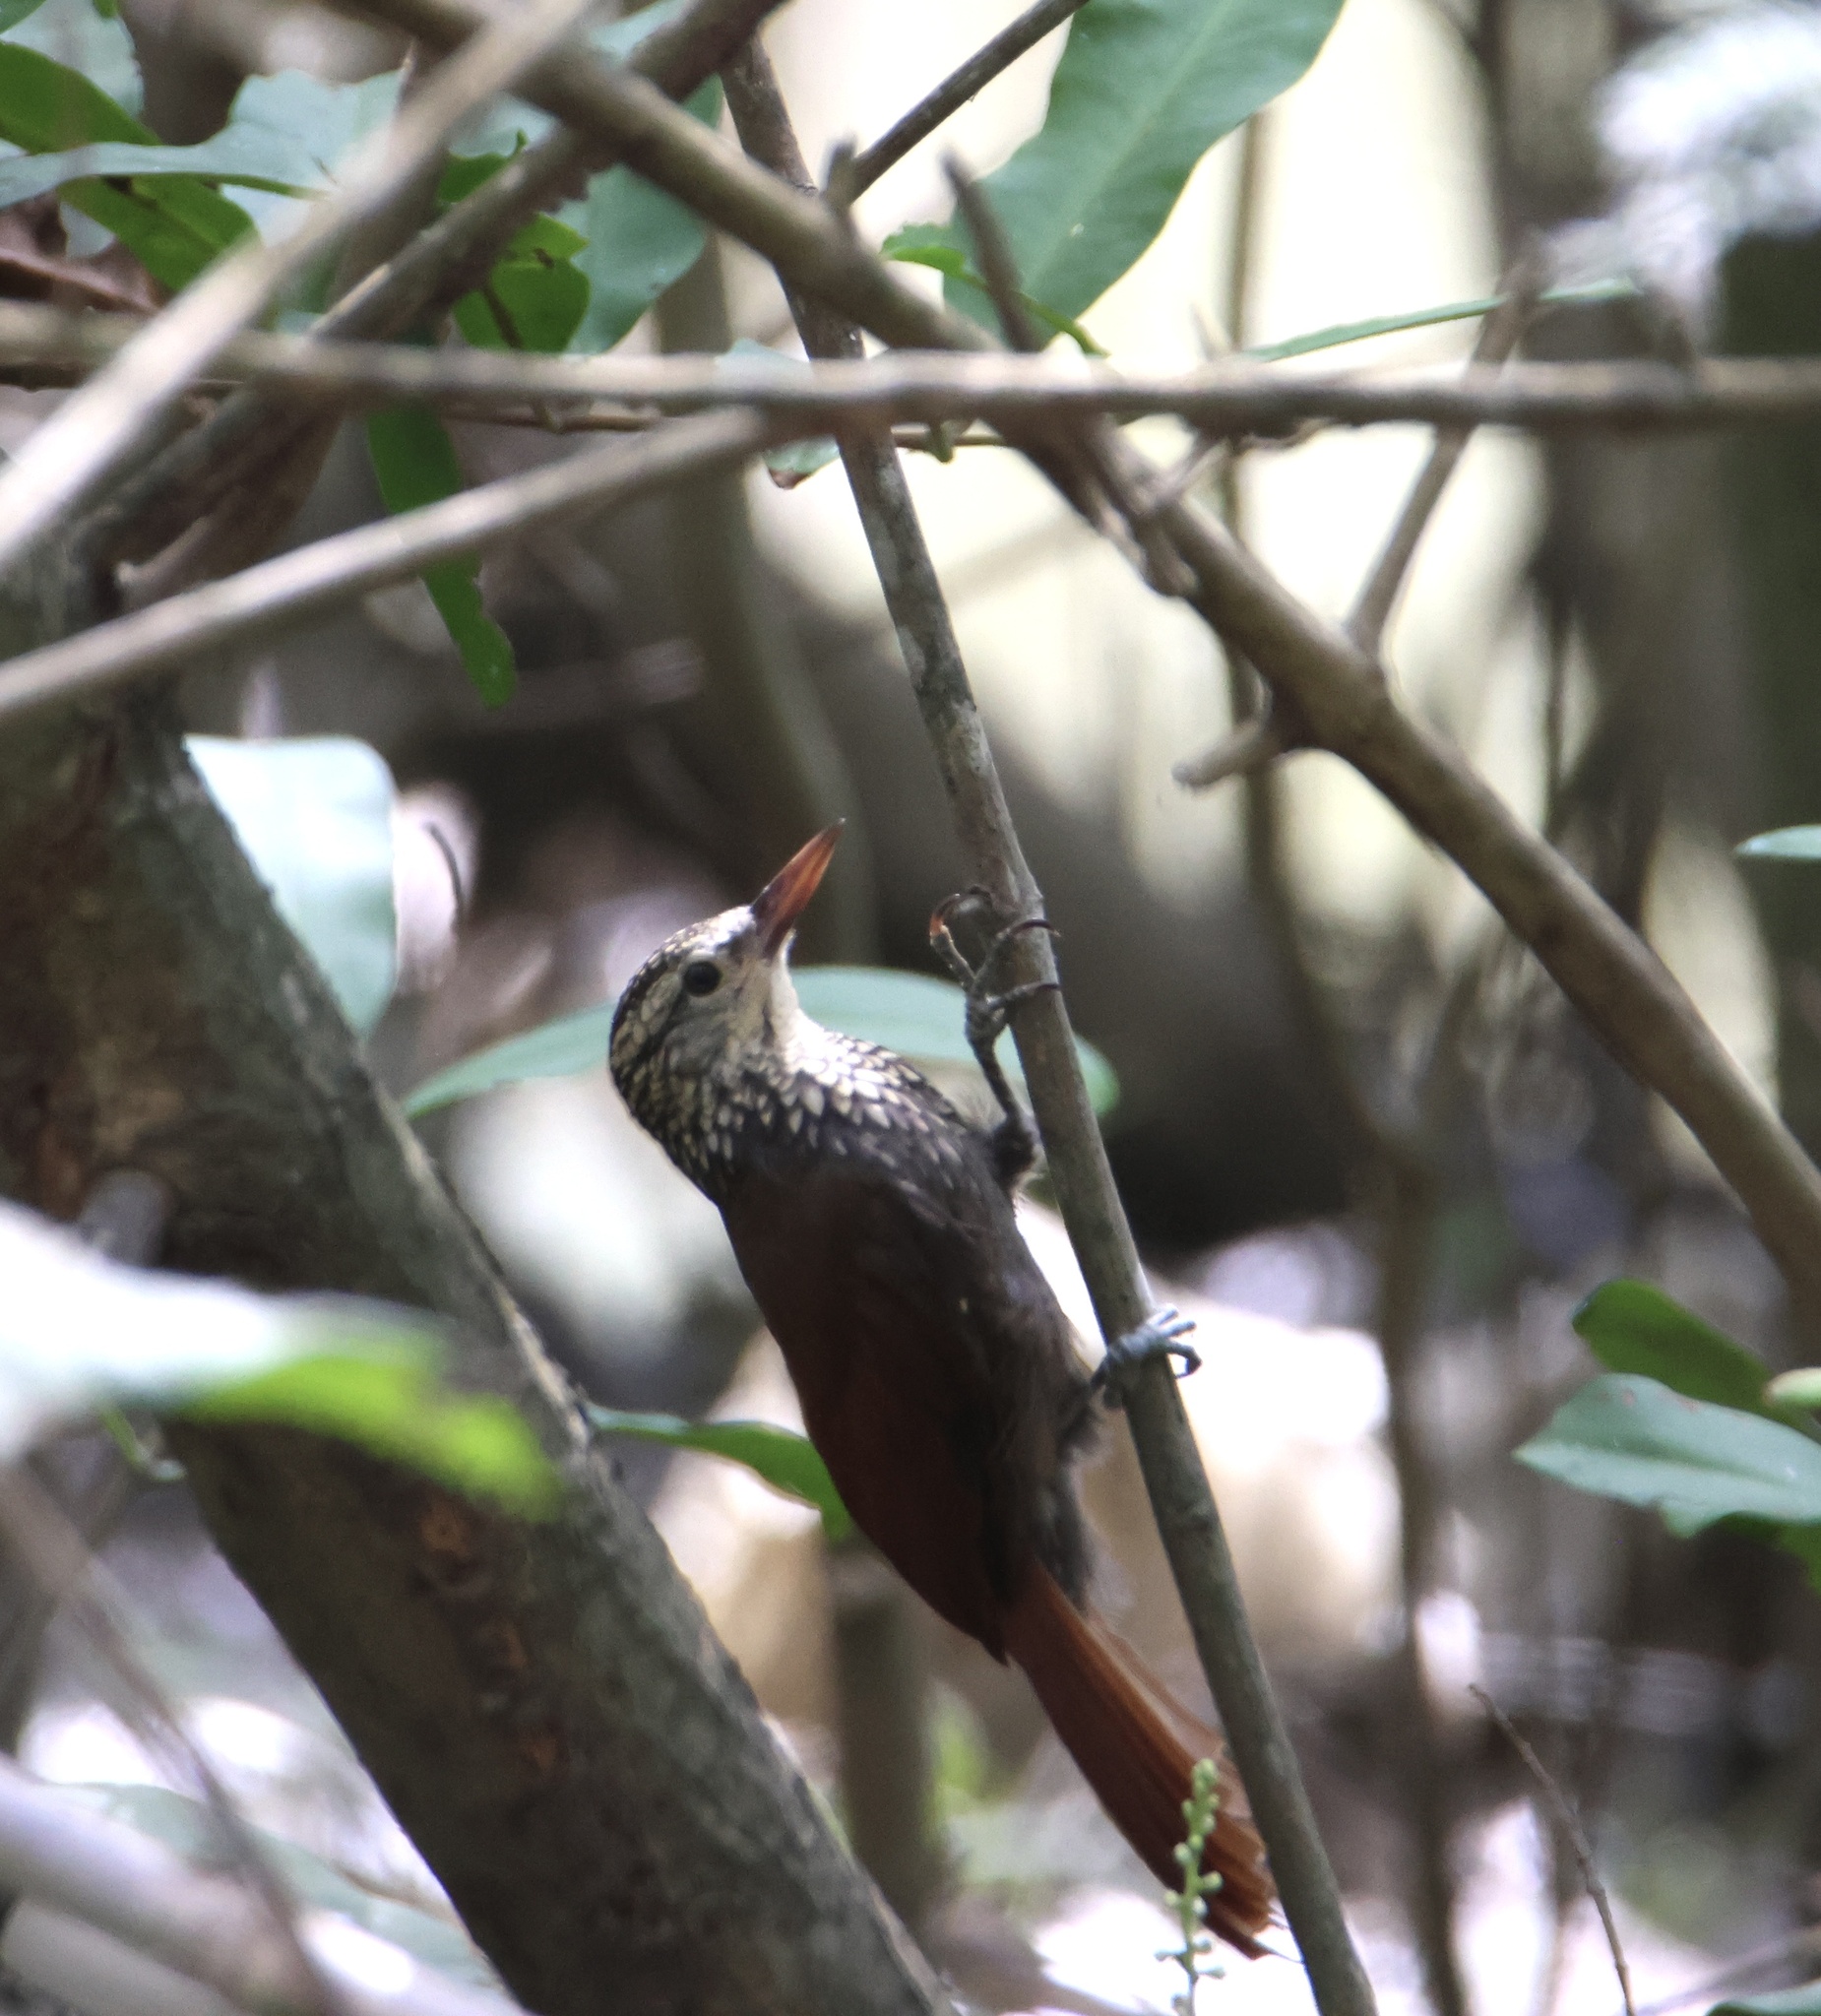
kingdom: Animalia
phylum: Chordata
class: Aves
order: Passeriformes
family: Furnariidae
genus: Xiphorhynchus
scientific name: Xiphorhynchus picus
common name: Straight-billed woodcreeper
